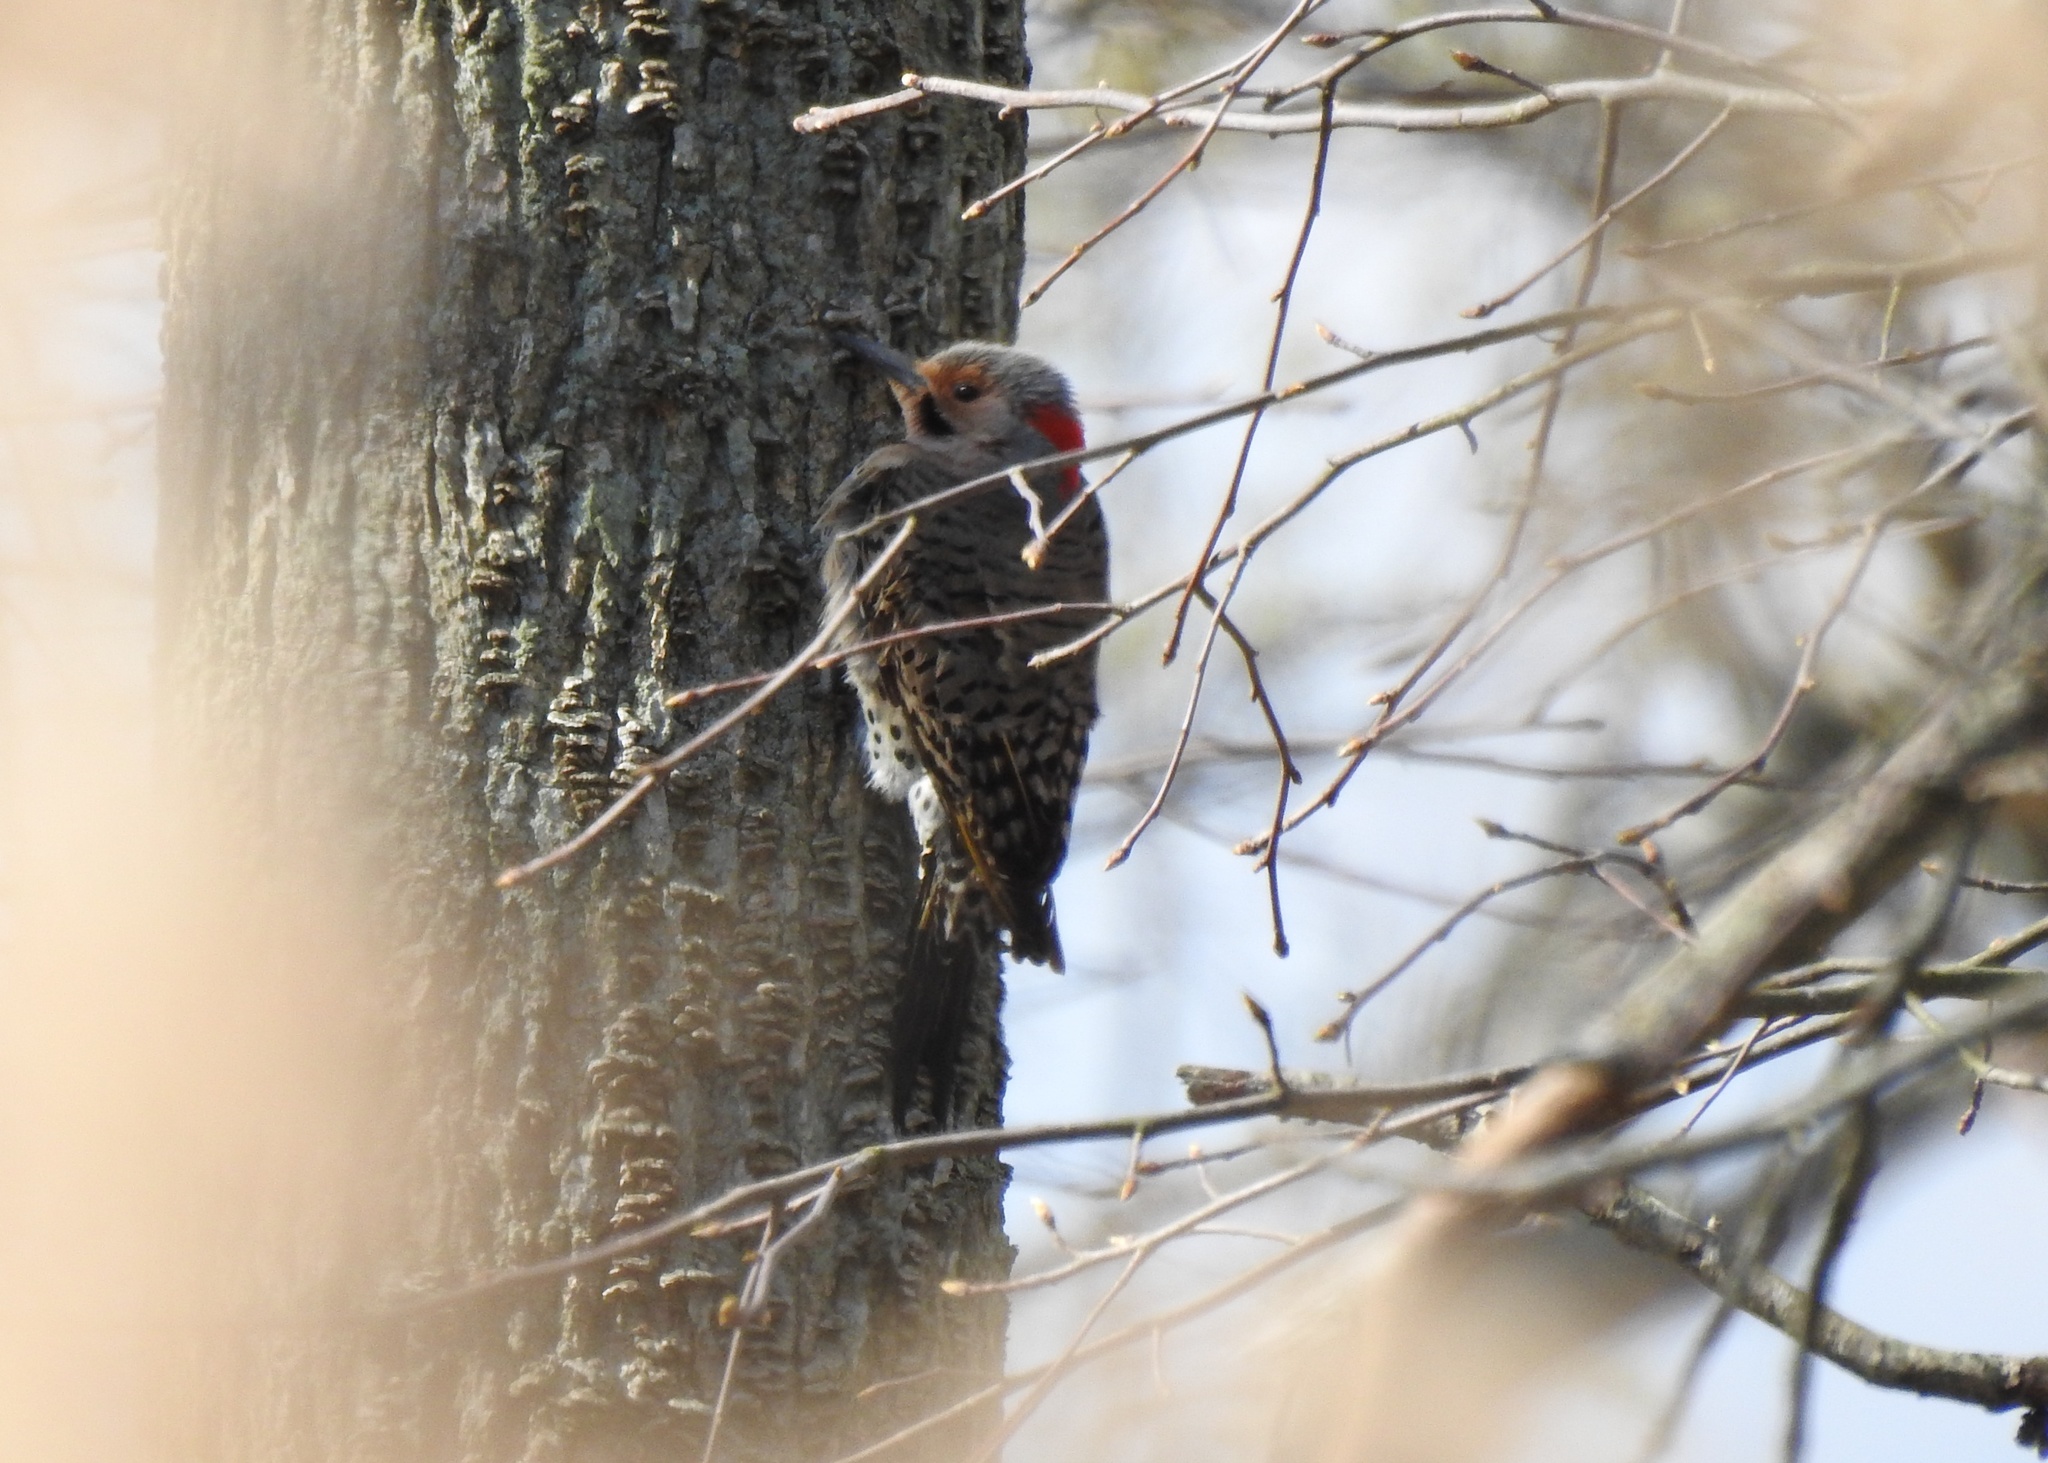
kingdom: Animalia
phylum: Chordata
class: Aves
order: Piciformes
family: Picidae
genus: Colaptes
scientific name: Colaptes auratus
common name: Northern flicker
